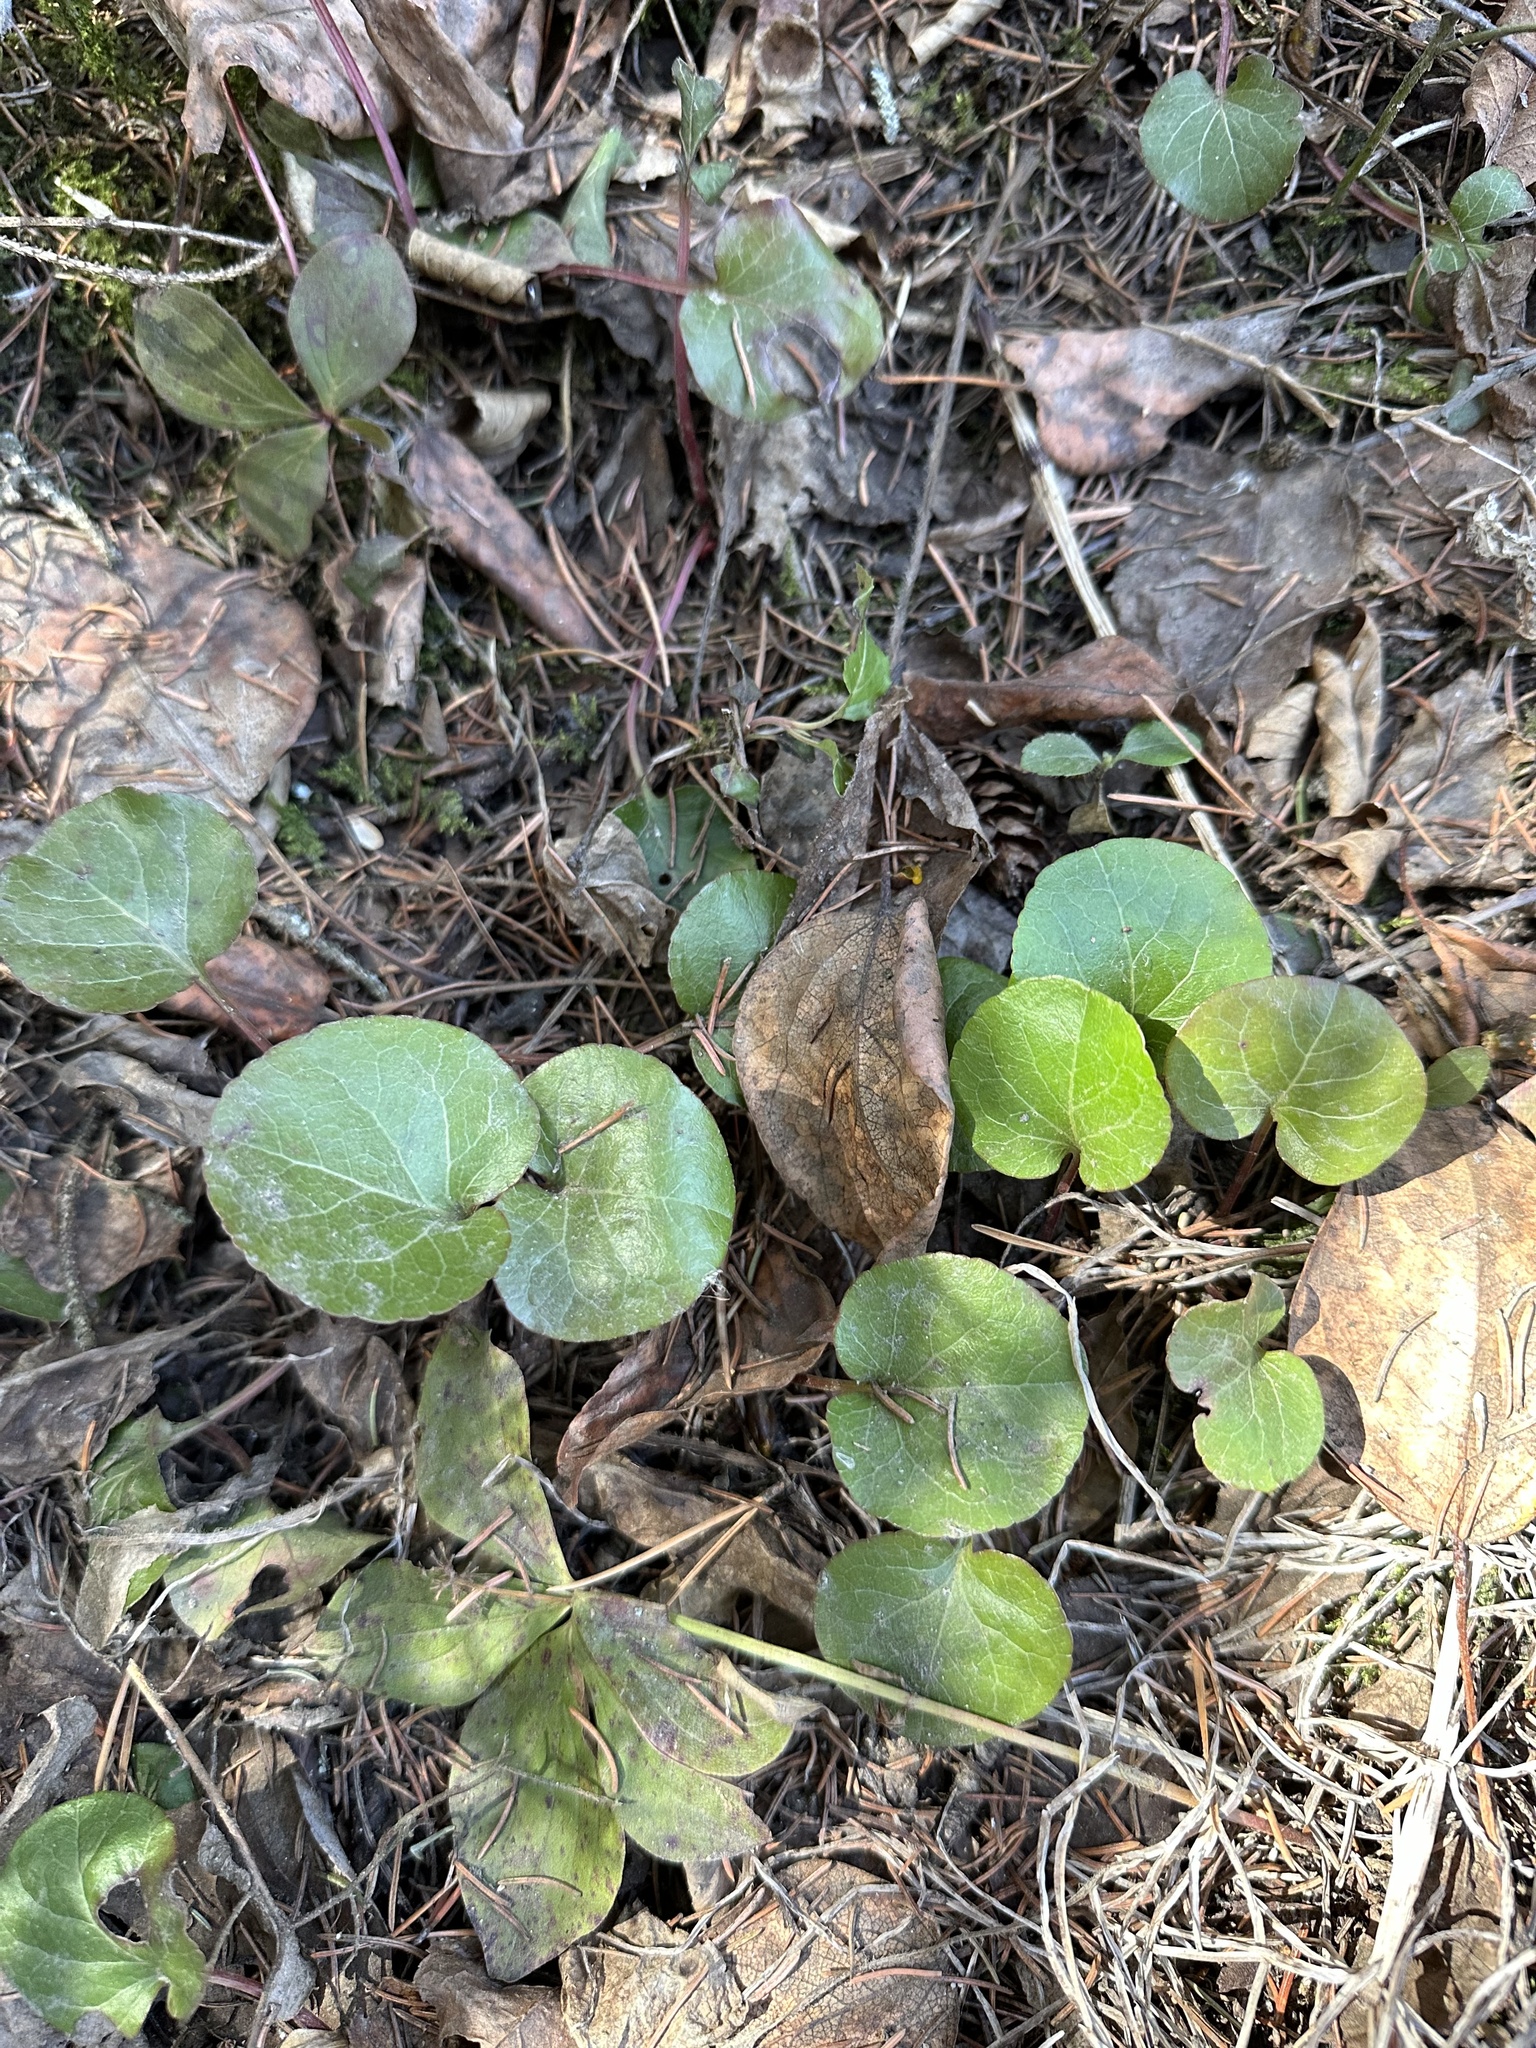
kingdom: Plantae
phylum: Tracheophyta
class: Magnoliopsida
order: Ericales
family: Ericaceae
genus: Pyrola
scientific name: Pyrola asarifolia
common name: Bog wintergreen
